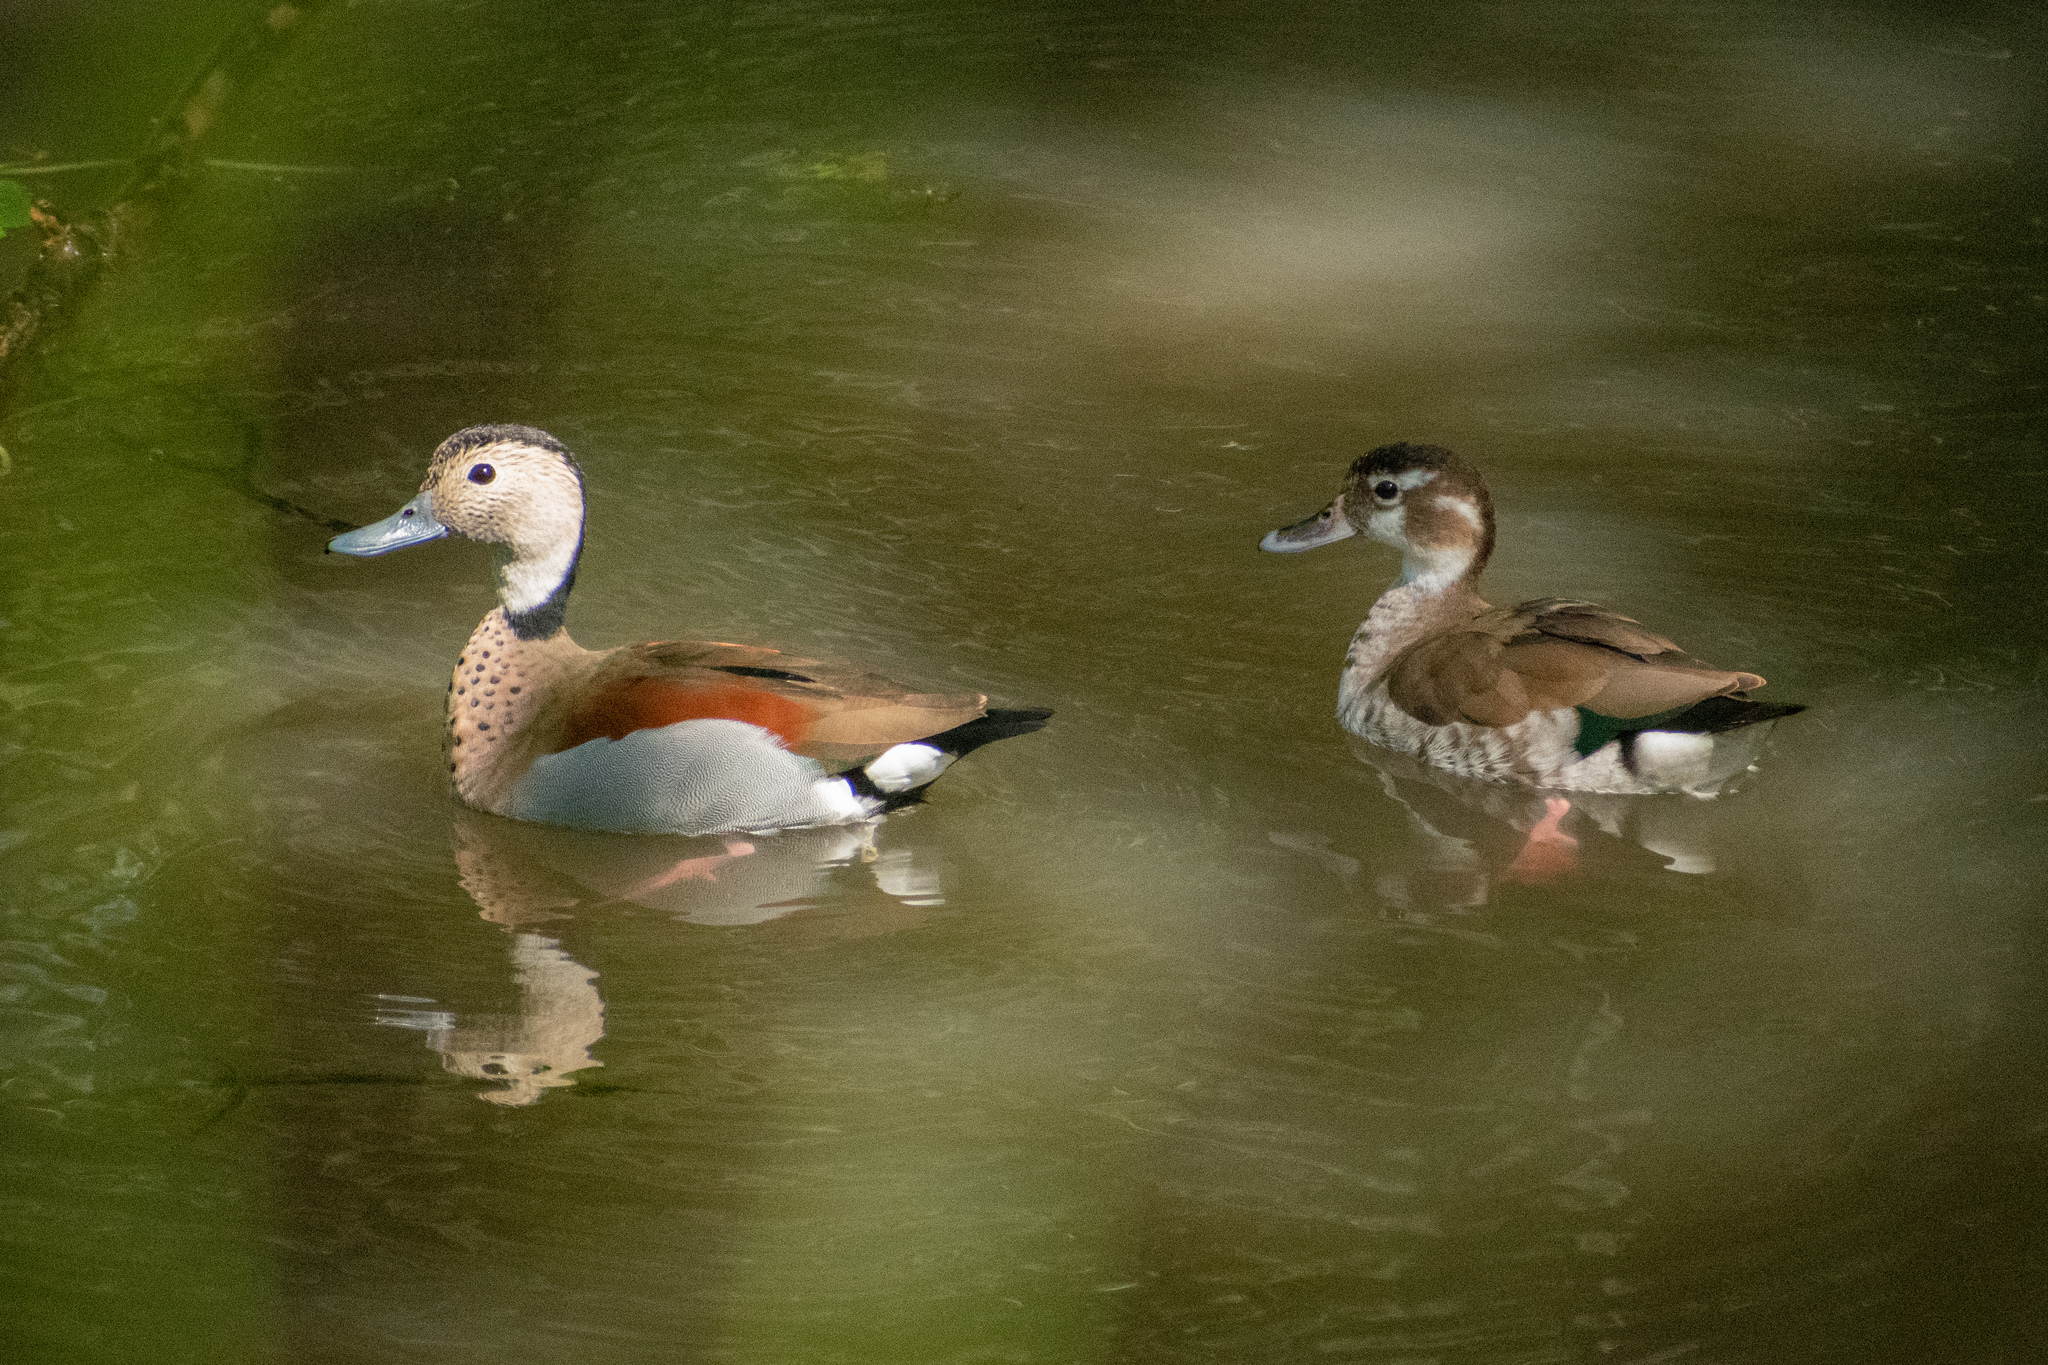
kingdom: Animalia
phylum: Chordata
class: Aves
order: Anseriformes
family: Anatidae
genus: Callonetta
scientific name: Callonetta leucophrys
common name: Ringed teal
